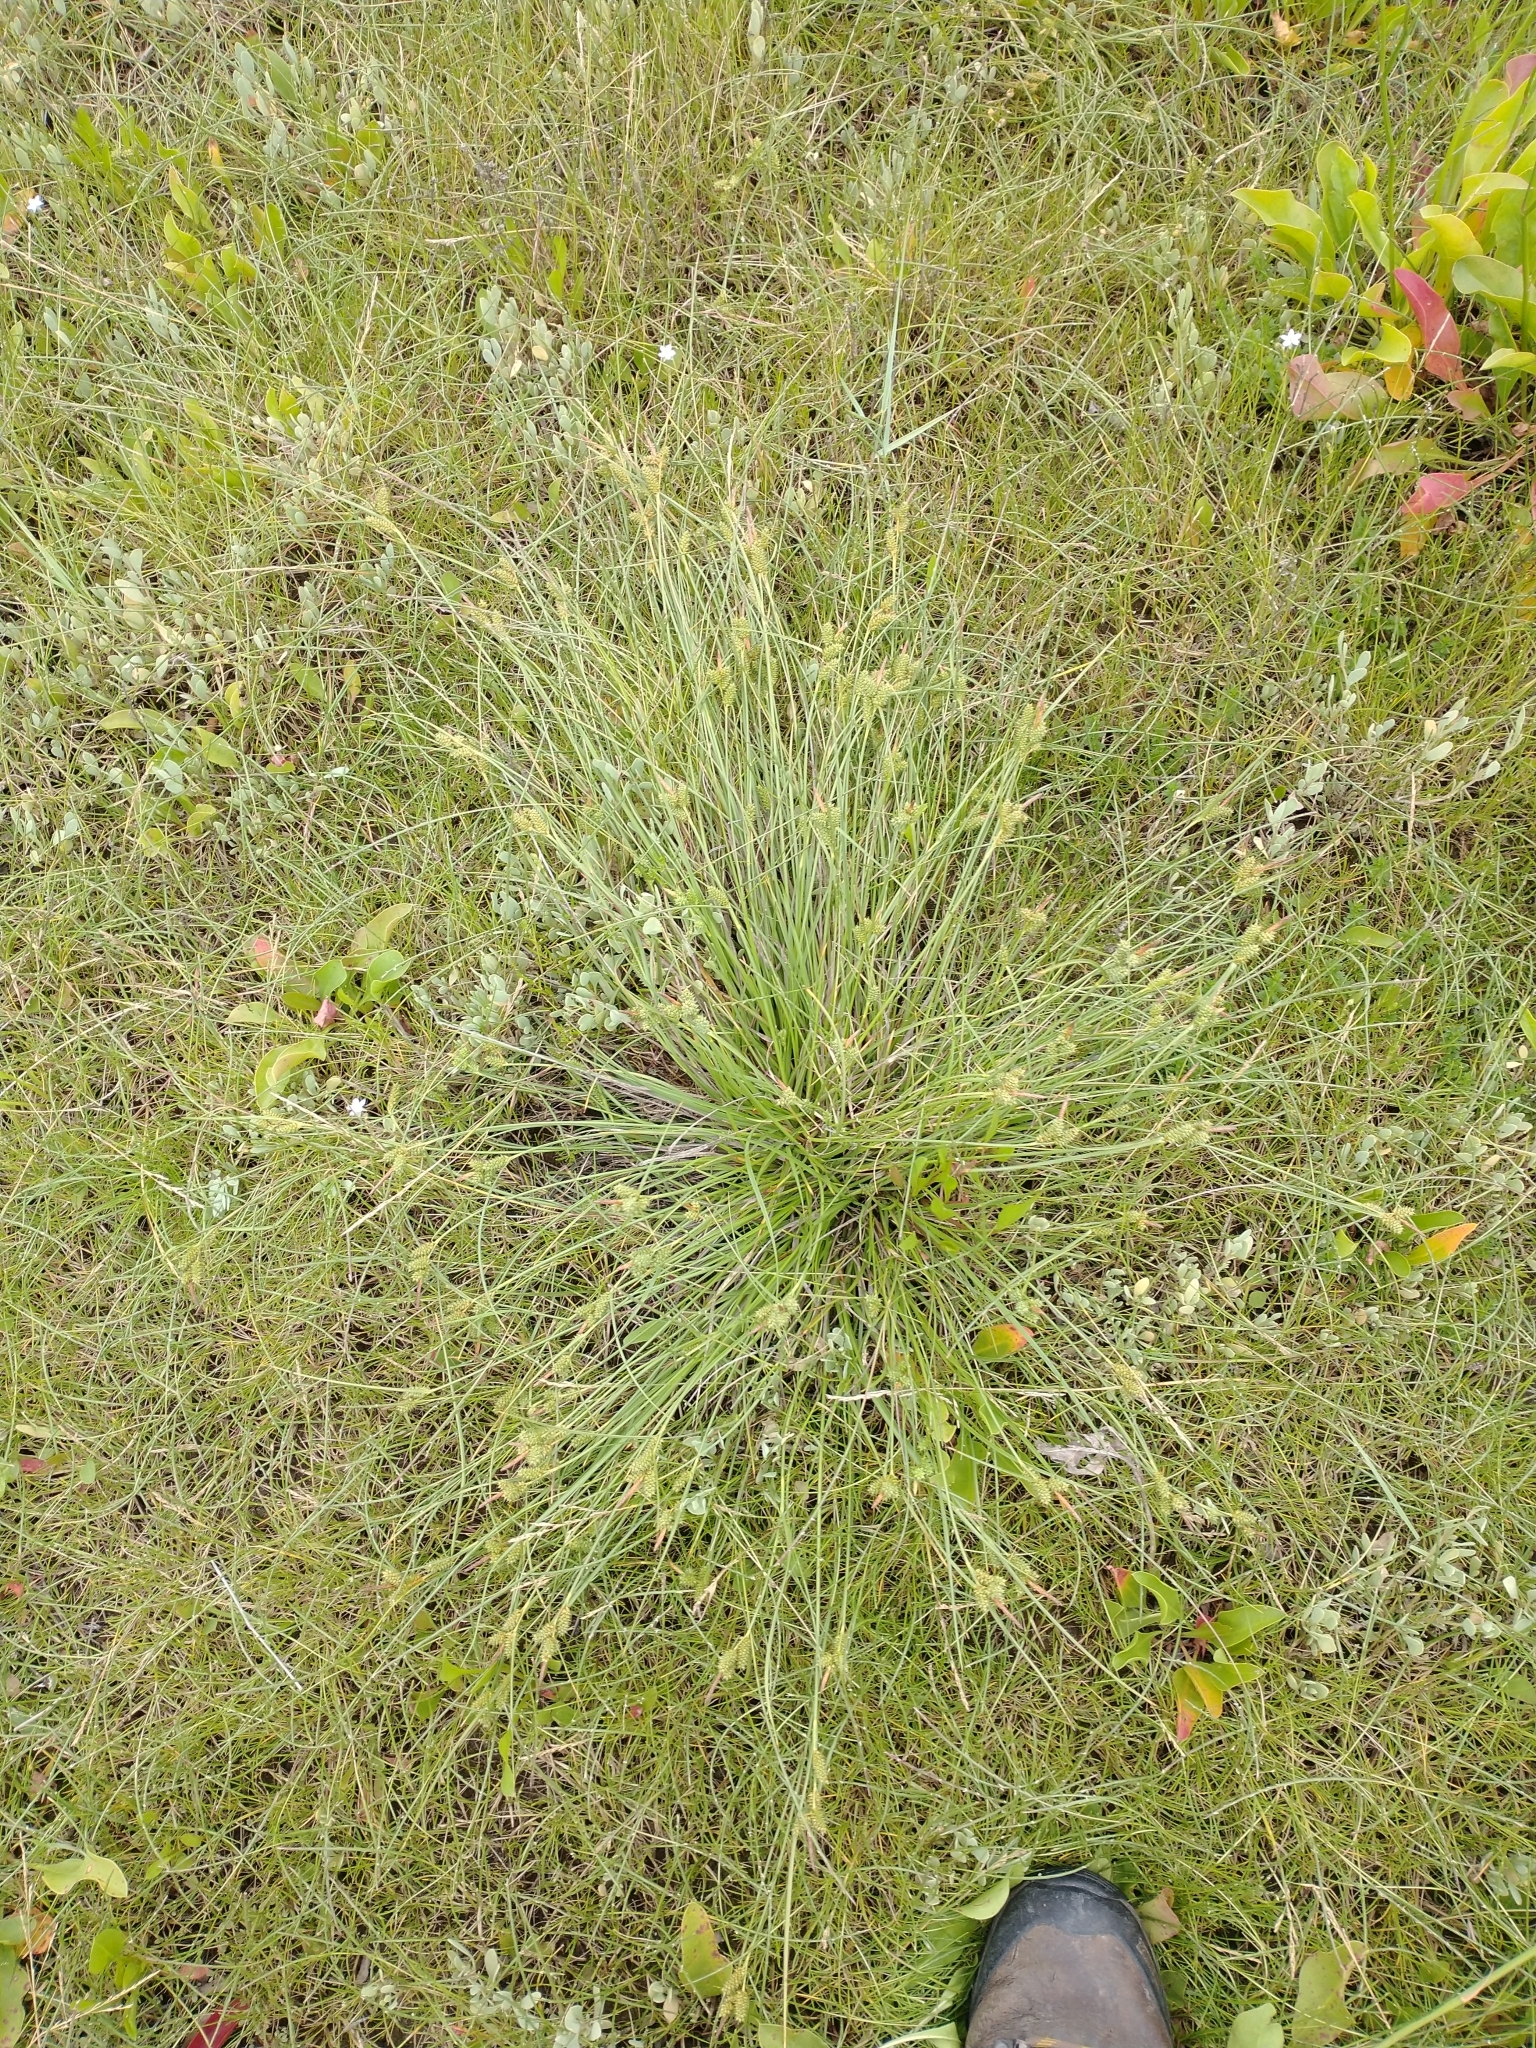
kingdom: Plantae
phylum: Tracheophyta
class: Liliopsida
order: Poales
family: Cyperaceae
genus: Carex
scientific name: Carex extensa
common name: Long-bracted sedge
